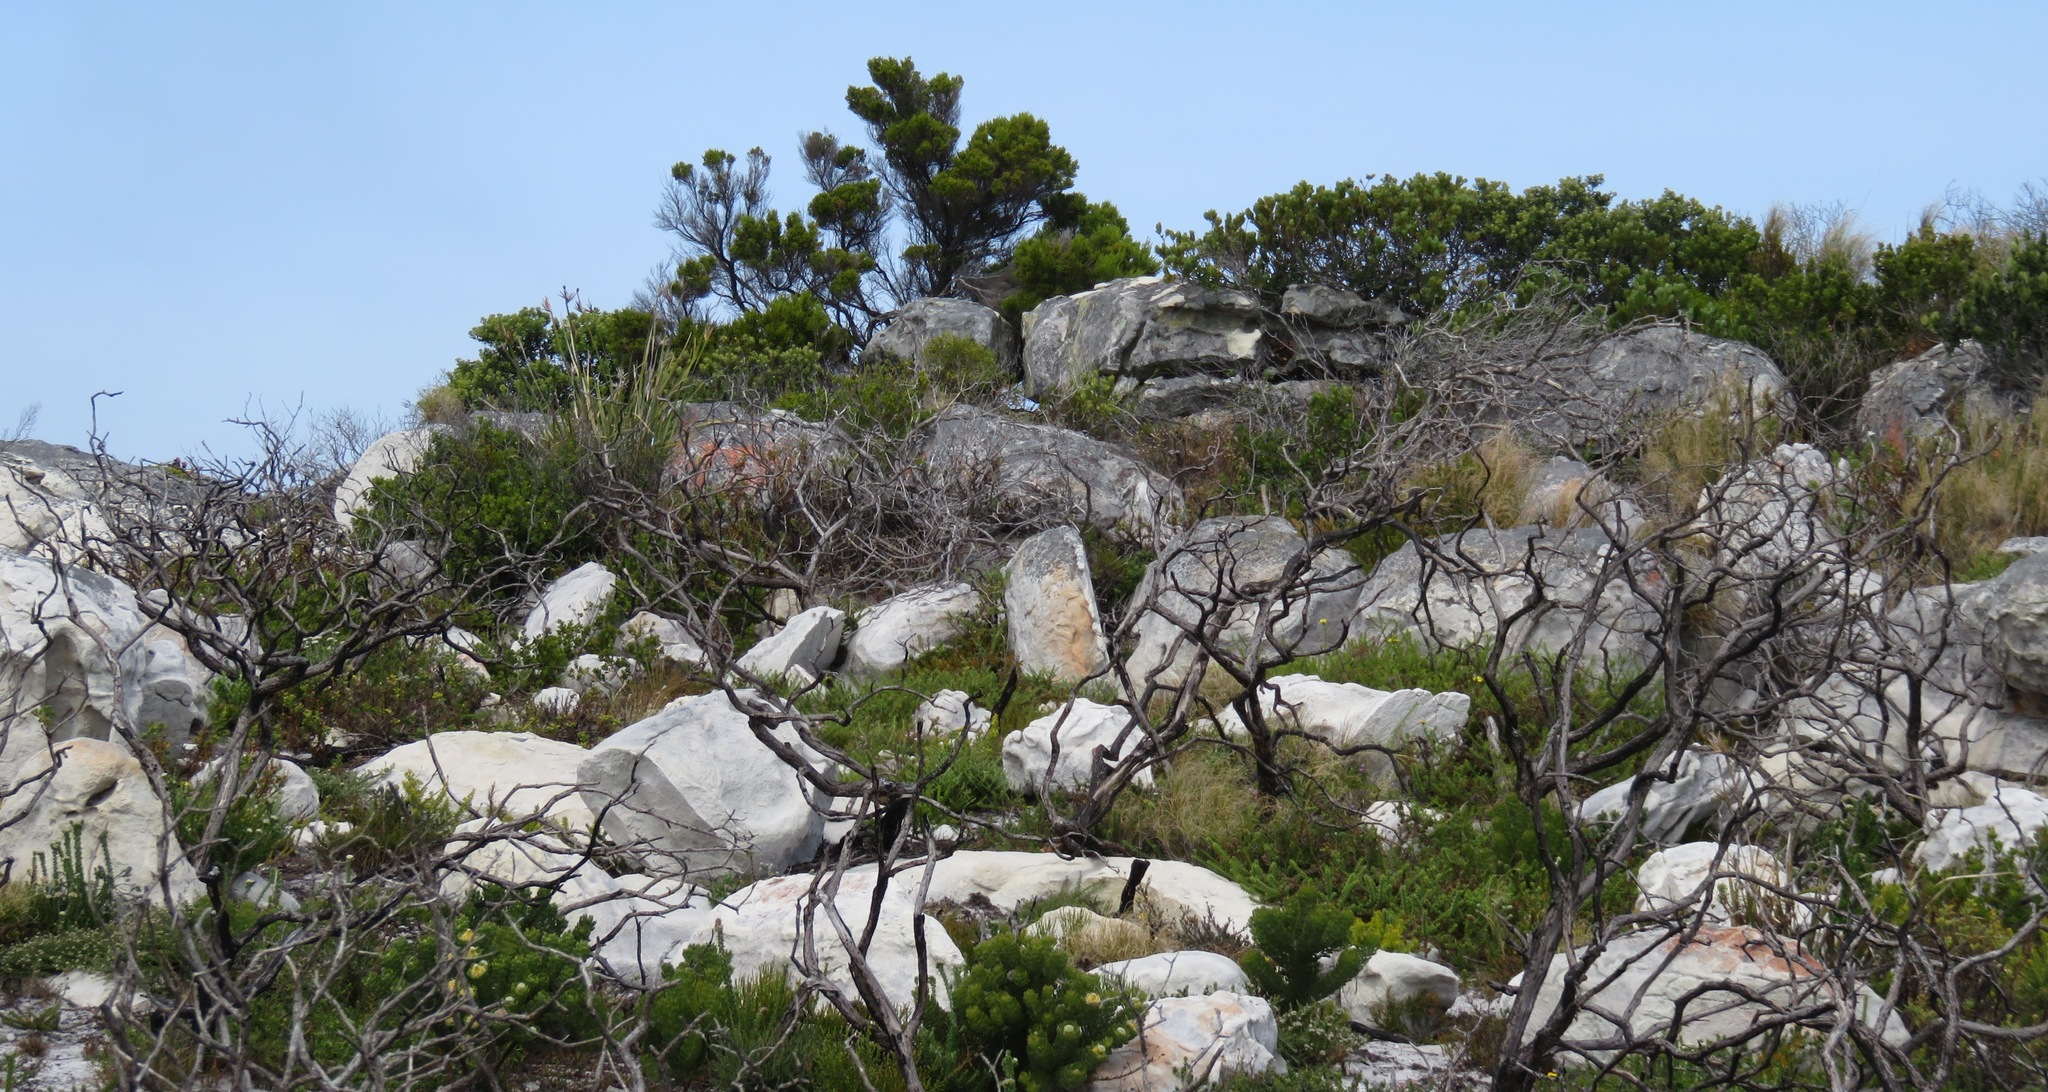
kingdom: Plantae
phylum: Tracheophyta
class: Magnoliopsida
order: Ericales
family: Ericaceae
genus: Erica
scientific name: Erica tristis
